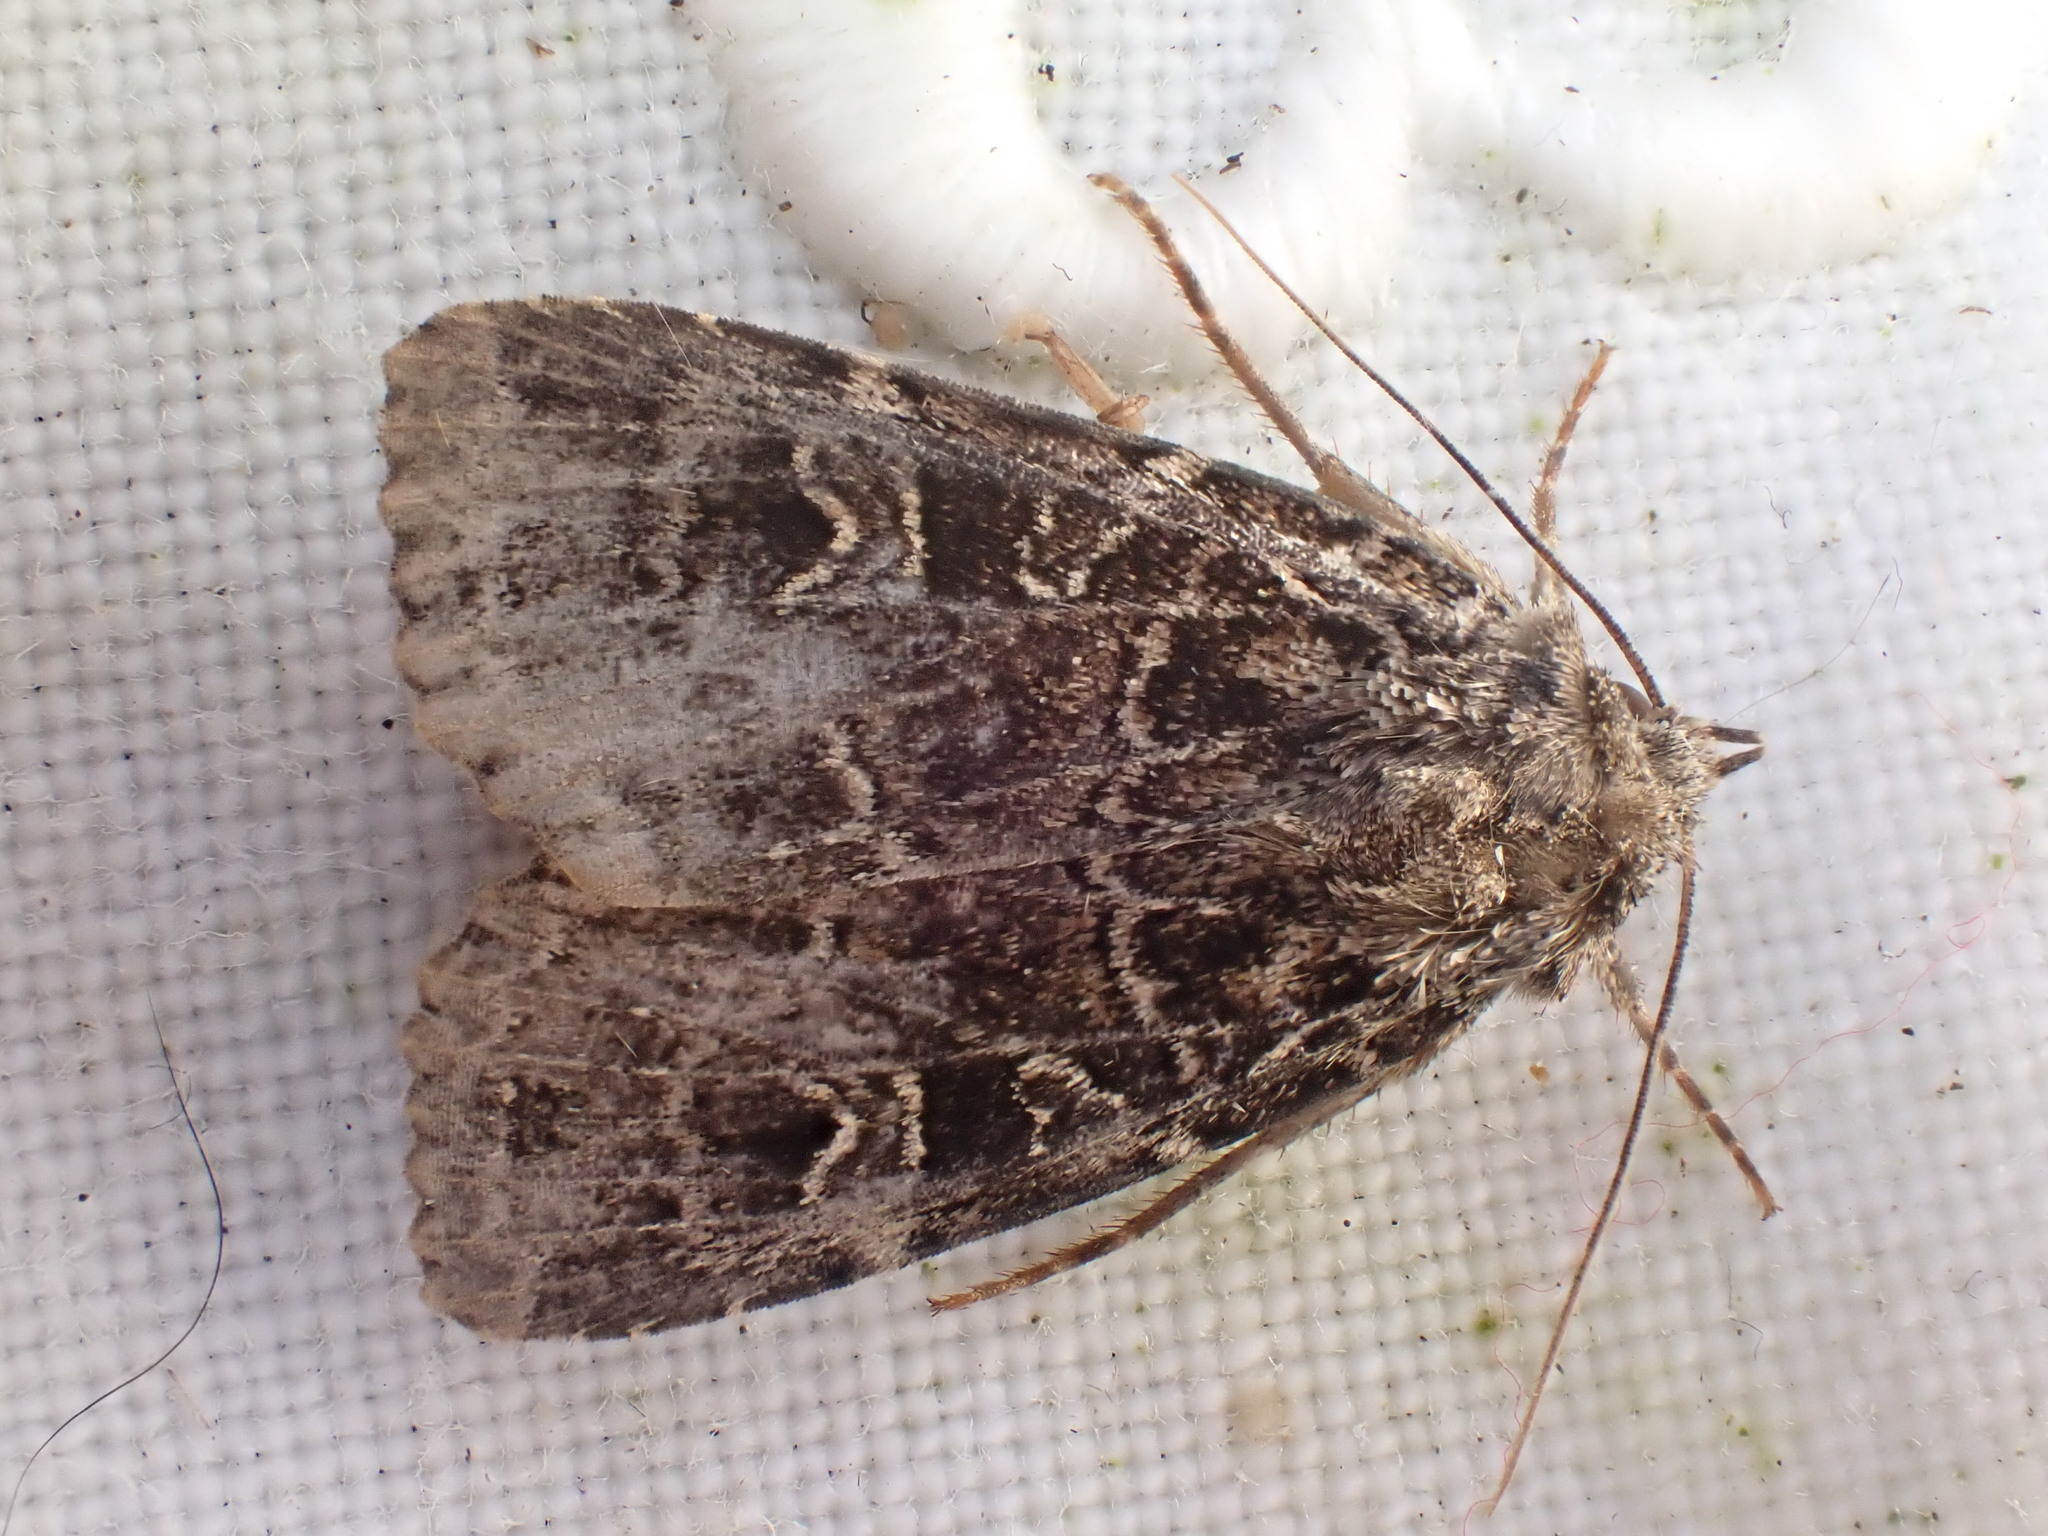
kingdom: Animalia
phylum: Arthropoda
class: Insecta
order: Lepidoptera
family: Noctuidae
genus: Naenia
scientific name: Naenia typica
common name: Gothic
